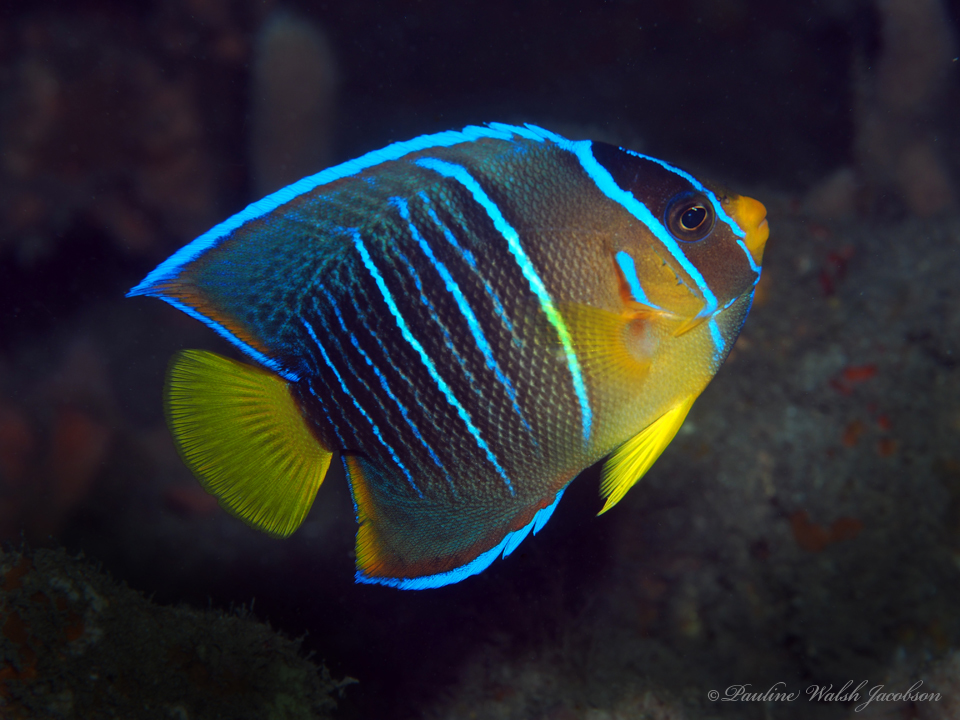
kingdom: Animalia
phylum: Chordata
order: Perciformes
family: Pomacanthidae
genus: Holacanthus
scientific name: Holacanthus ciliaris
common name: Queen angelfish
